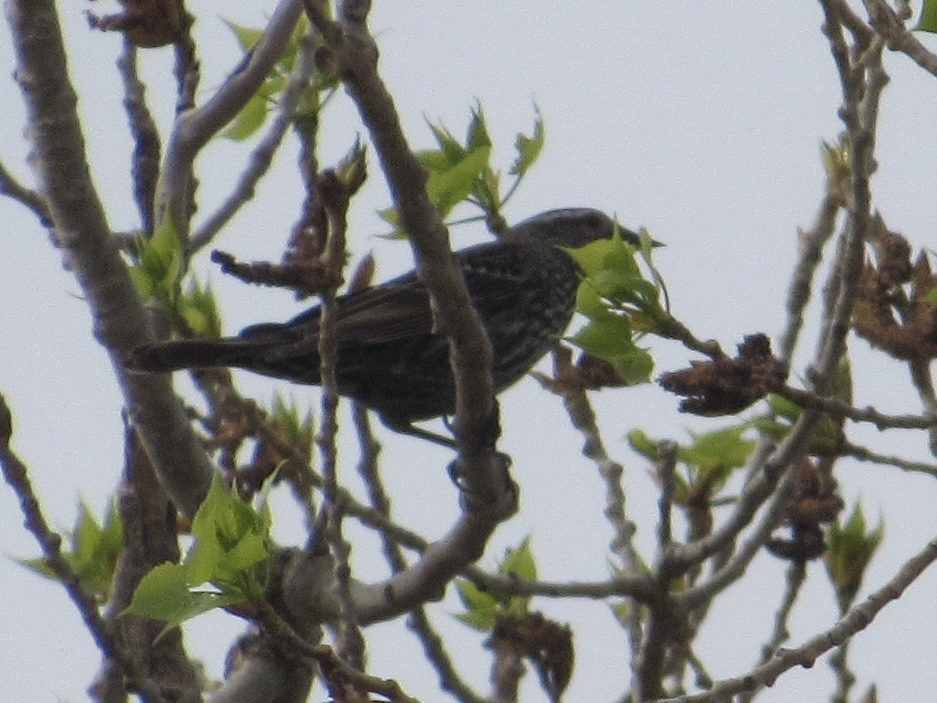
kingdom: Animalia
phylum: Chordata
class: Aves
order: Passeriformes
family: Icteridae
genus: Agelaius
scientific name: Agelaius phoeniceus
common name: Red-winged blackbird
